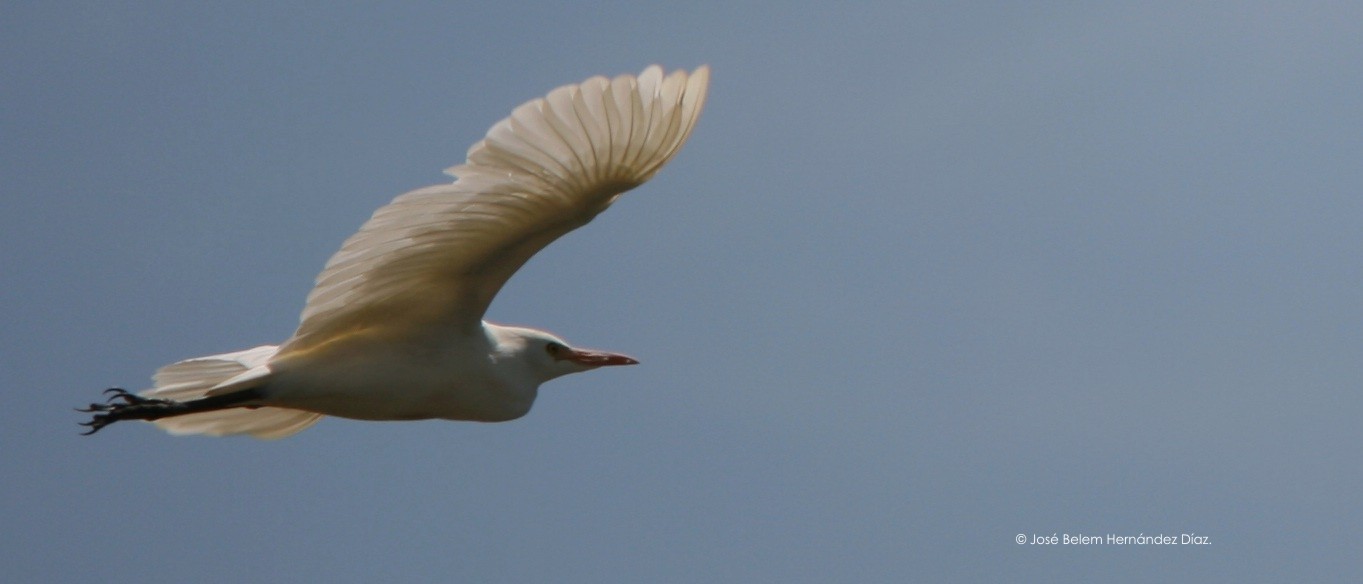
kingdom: Animalia
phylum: Chordata
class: Aves
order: Pelecaniformes
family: Ardeidae
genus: Bubulcus
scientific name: Bubulcus ibis
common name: Cattle egret
